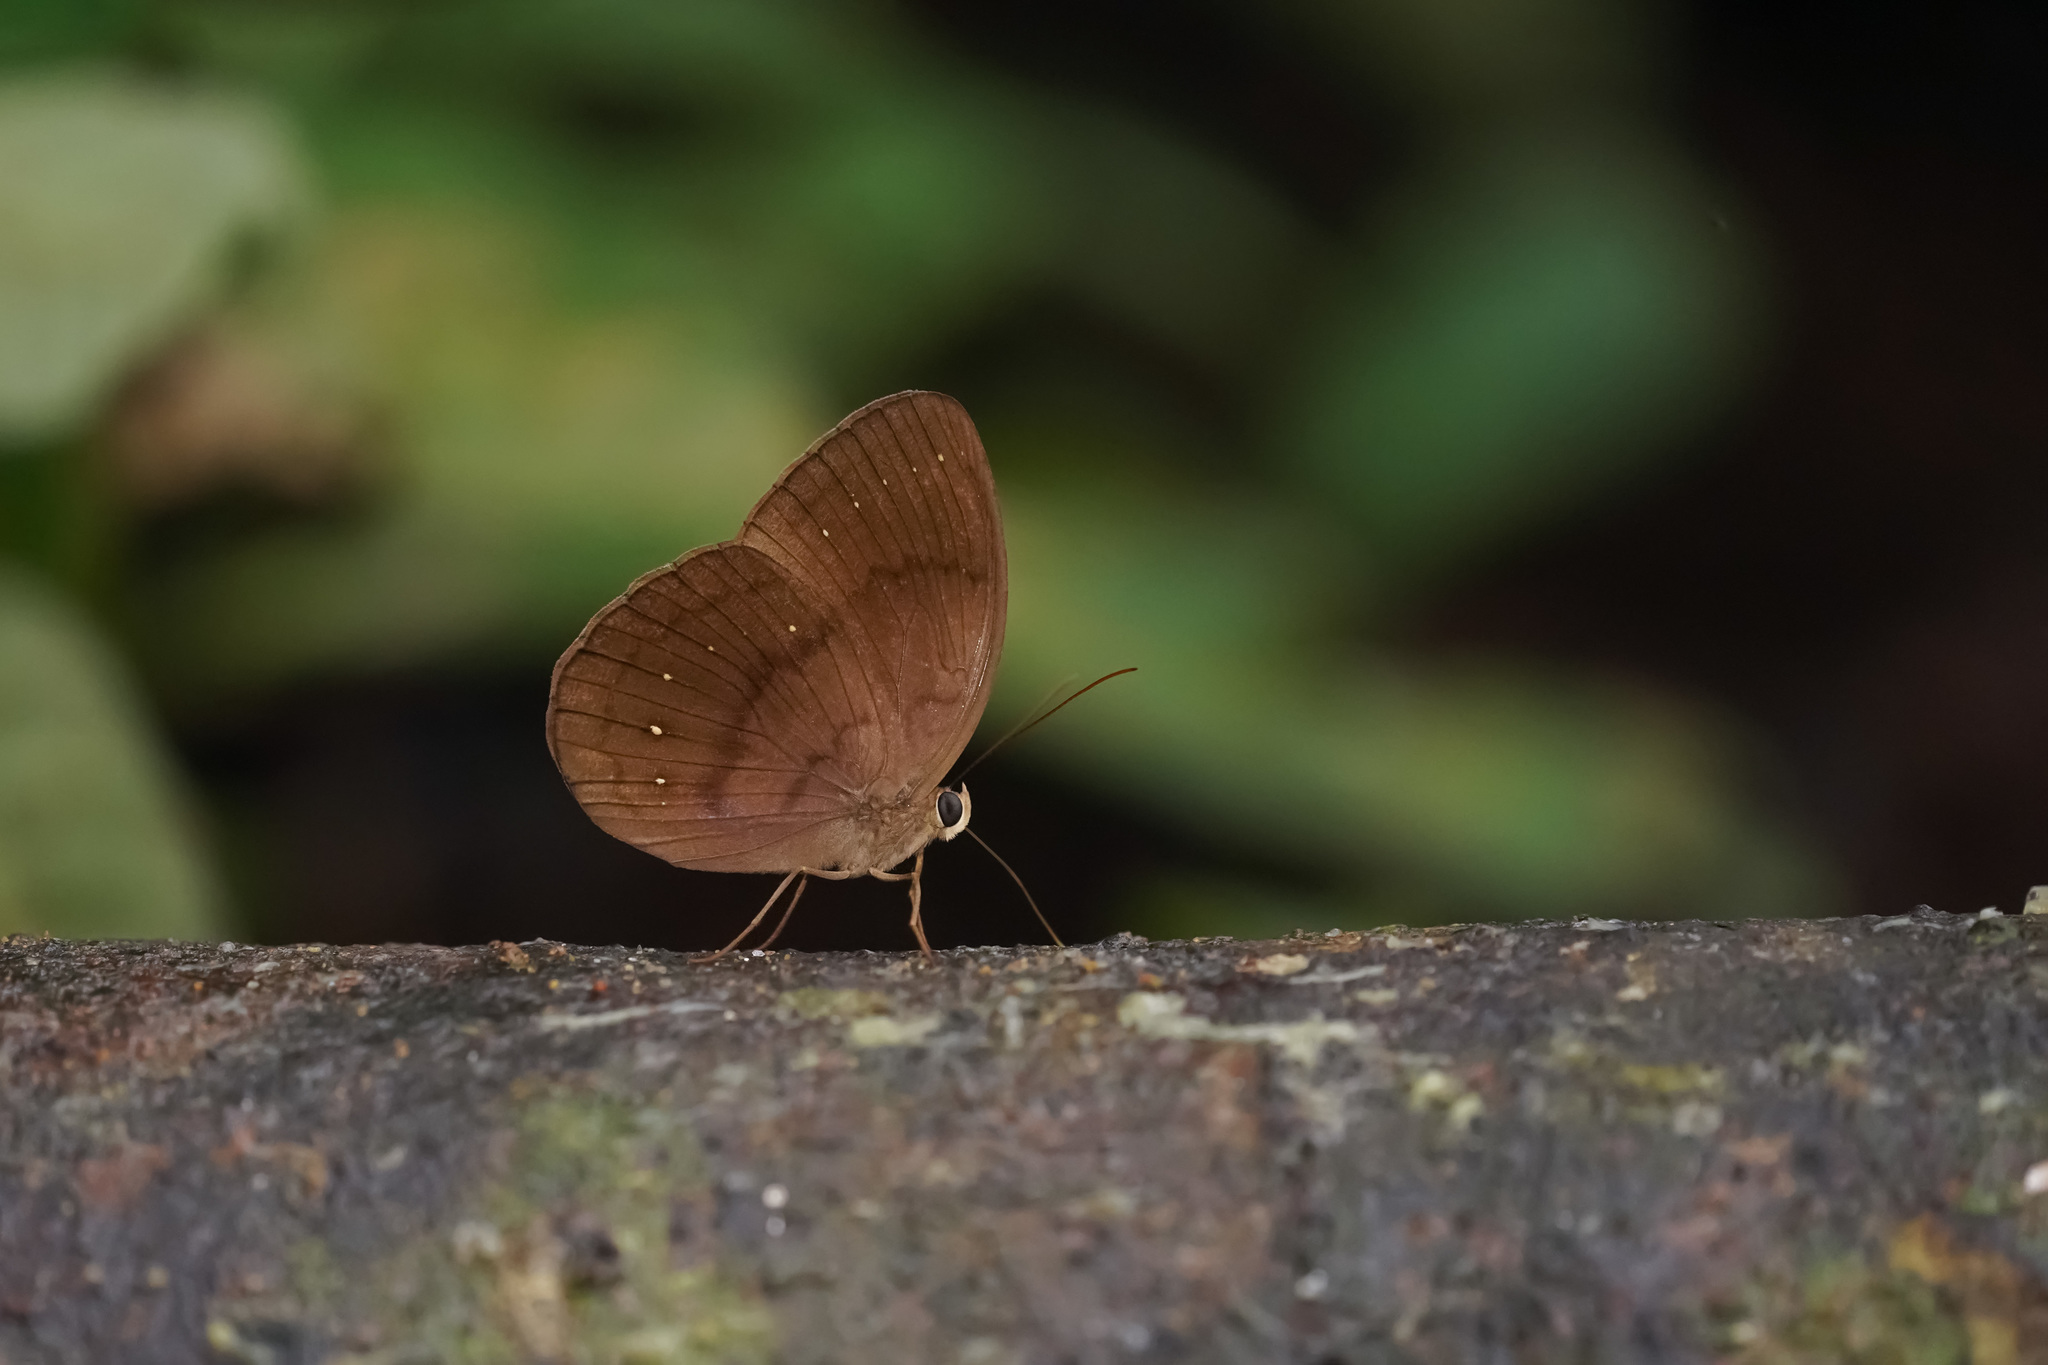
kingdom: Animalia
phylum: Arthropoda
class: Insecta
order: Lepidoptera
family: Nymphalidae
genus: Faunis
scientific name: Faunis canens
